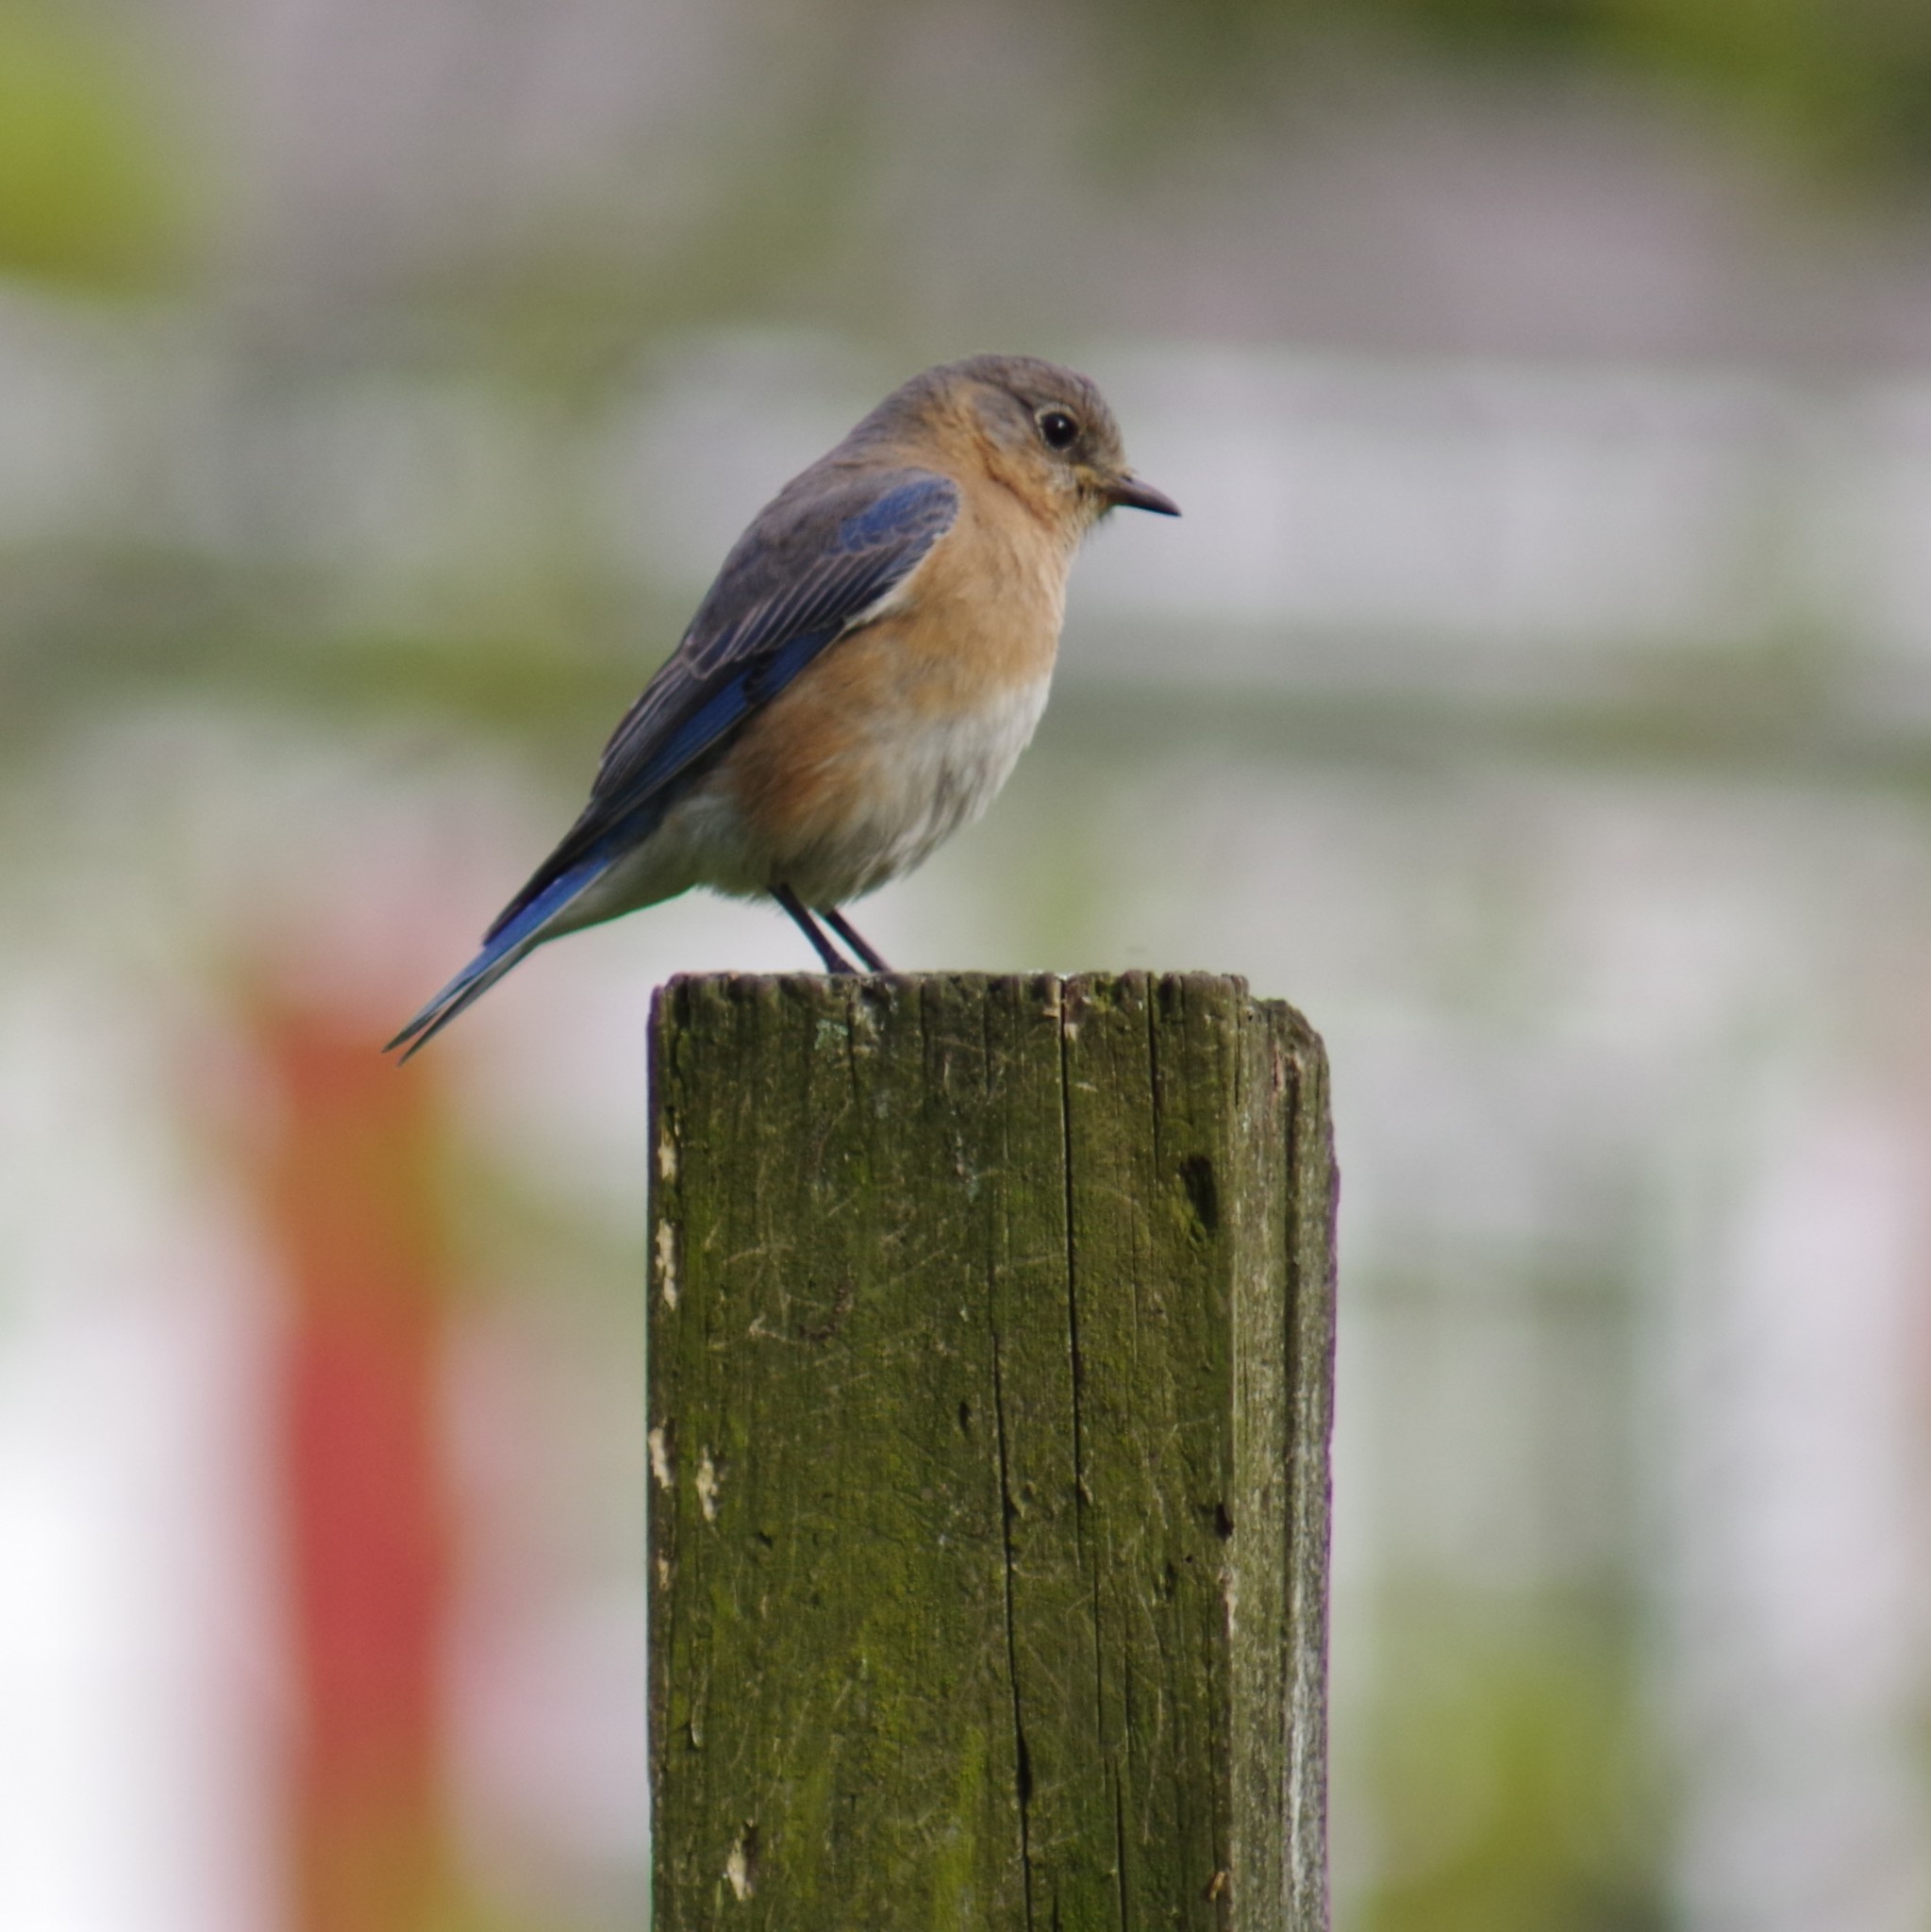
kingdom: Animalia
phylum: Chordata
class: Aves
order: Passeriformes
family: Turdidae
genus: Sialia
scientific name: Sialia sialis
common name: Eastern bluebird
